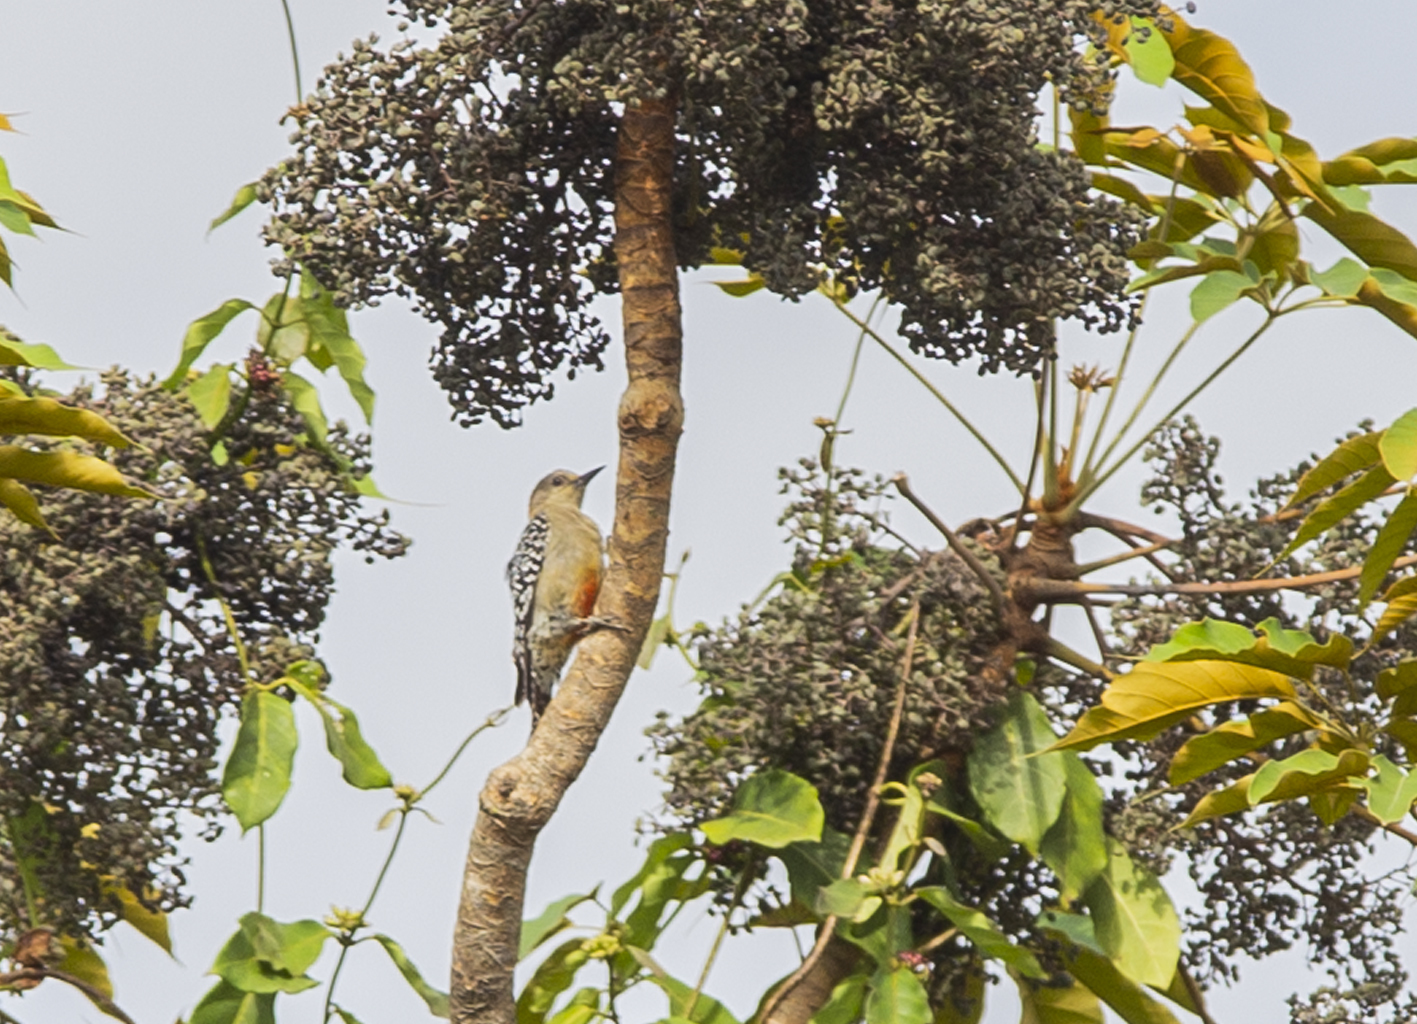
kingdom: Animalia
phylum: Chordata
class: Aves
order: Piciformes
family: Picidae
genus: Melanerpes
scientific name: Melanerpes rubricapillus
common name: Red-crowned woodpecker
